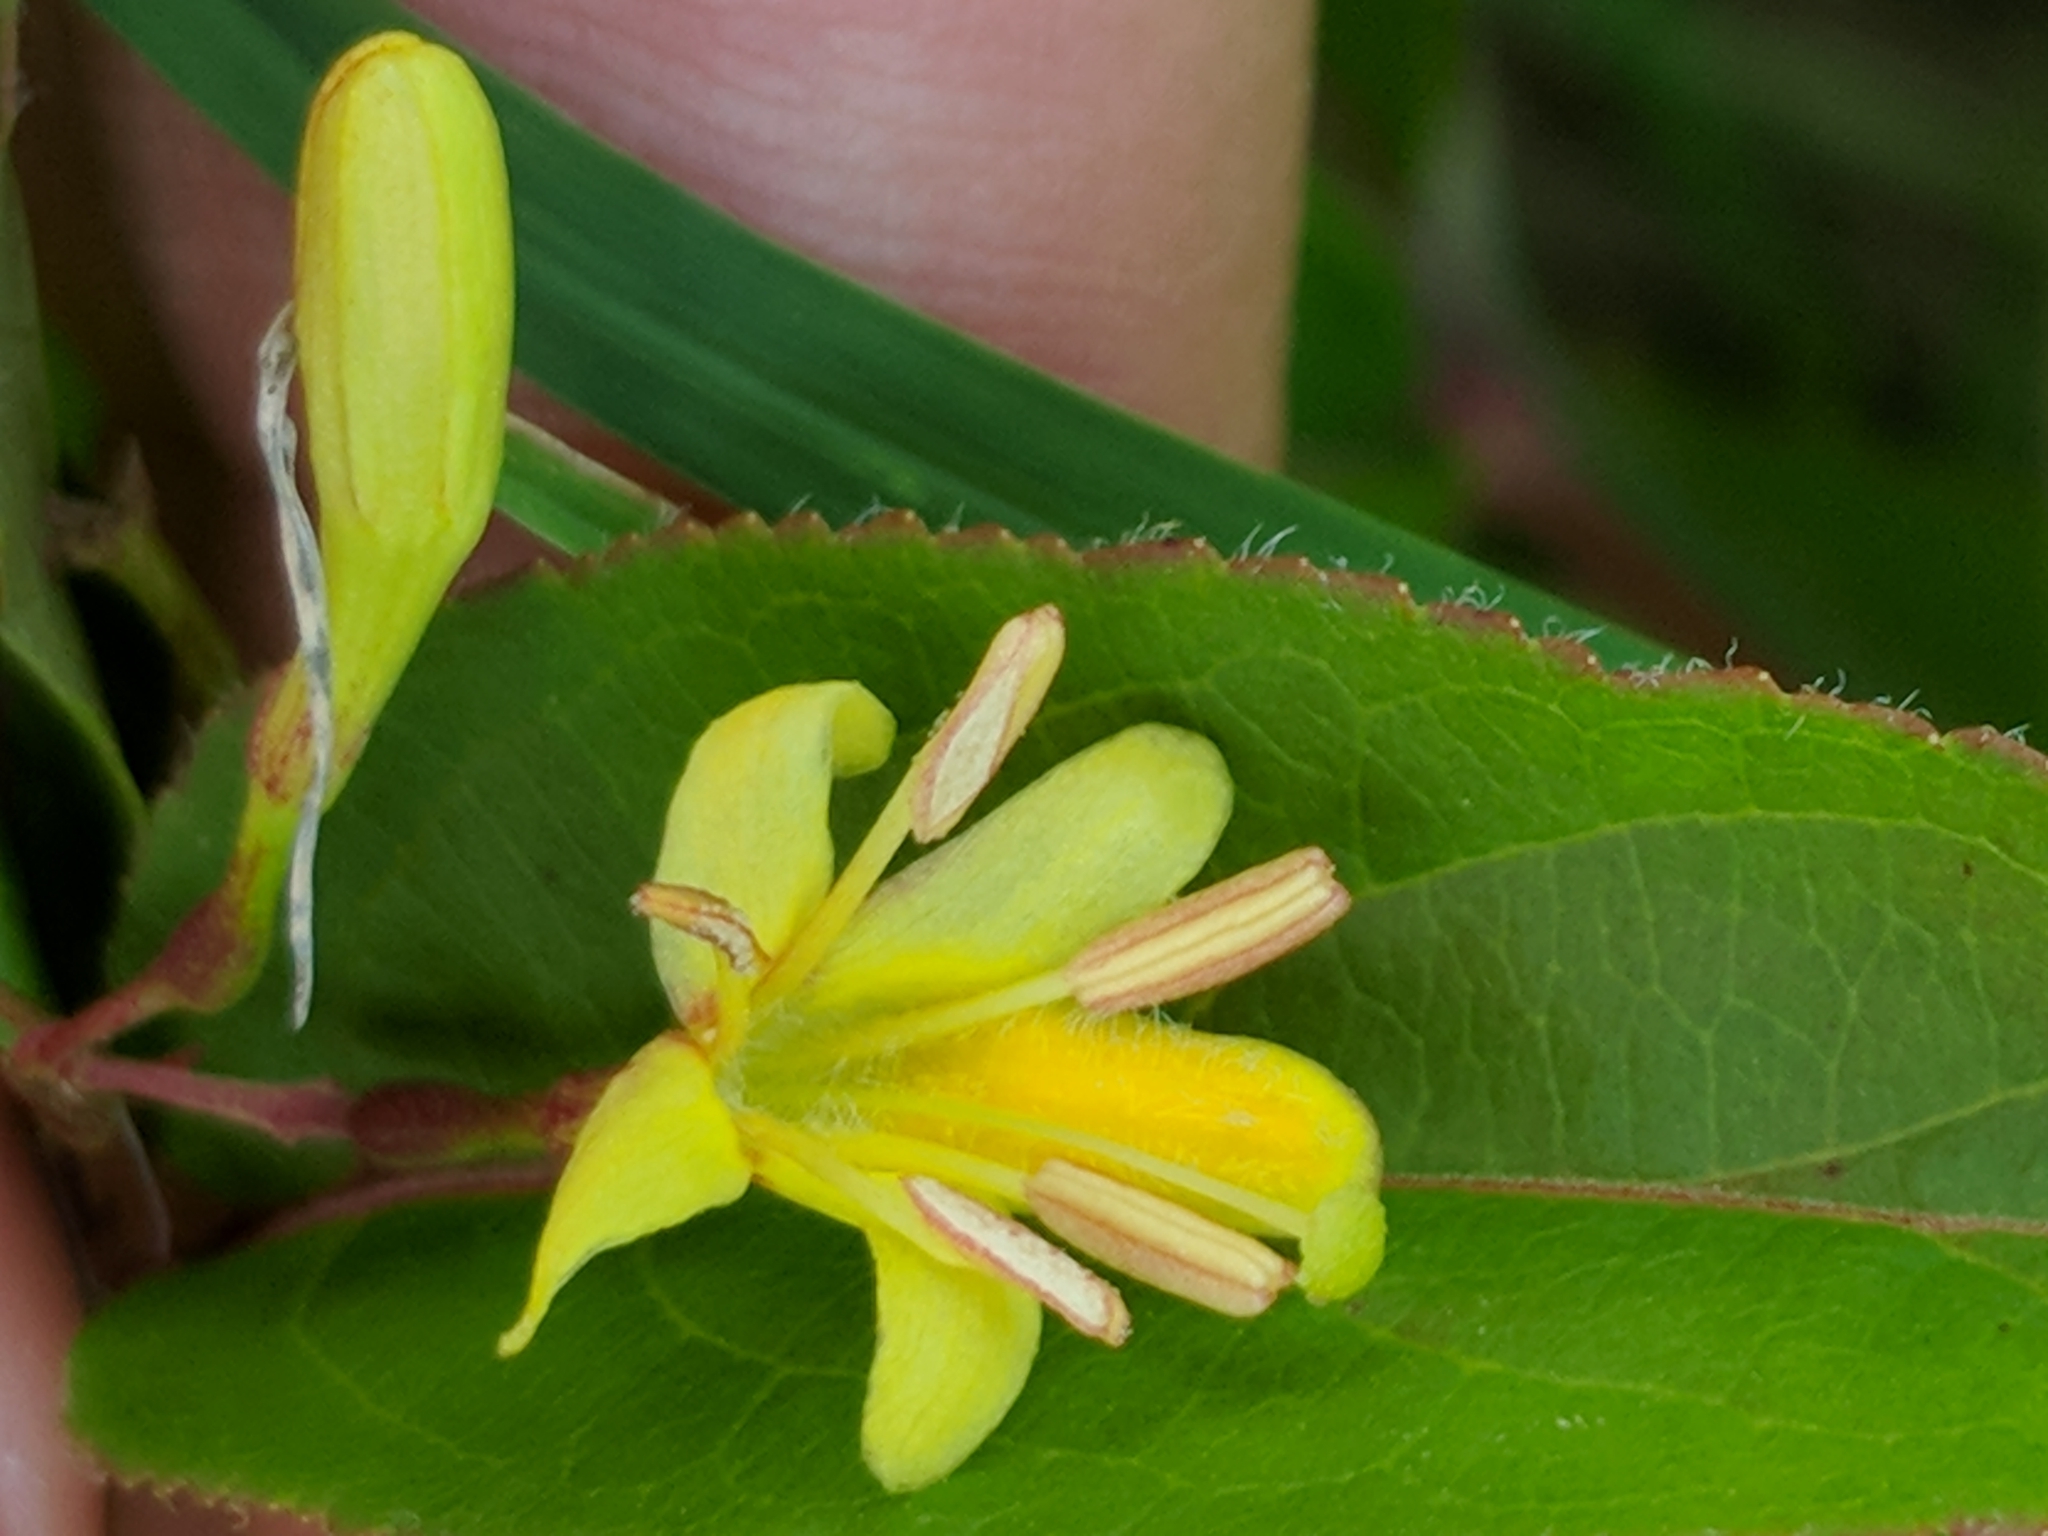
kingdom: Plantae
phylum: Tracheophyta
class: Magnoliopsida
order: Dipsacales
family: Caprifoliaceae
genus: Diervilla
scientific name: Diervilla lonicera
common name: Bush-honeysuckle
